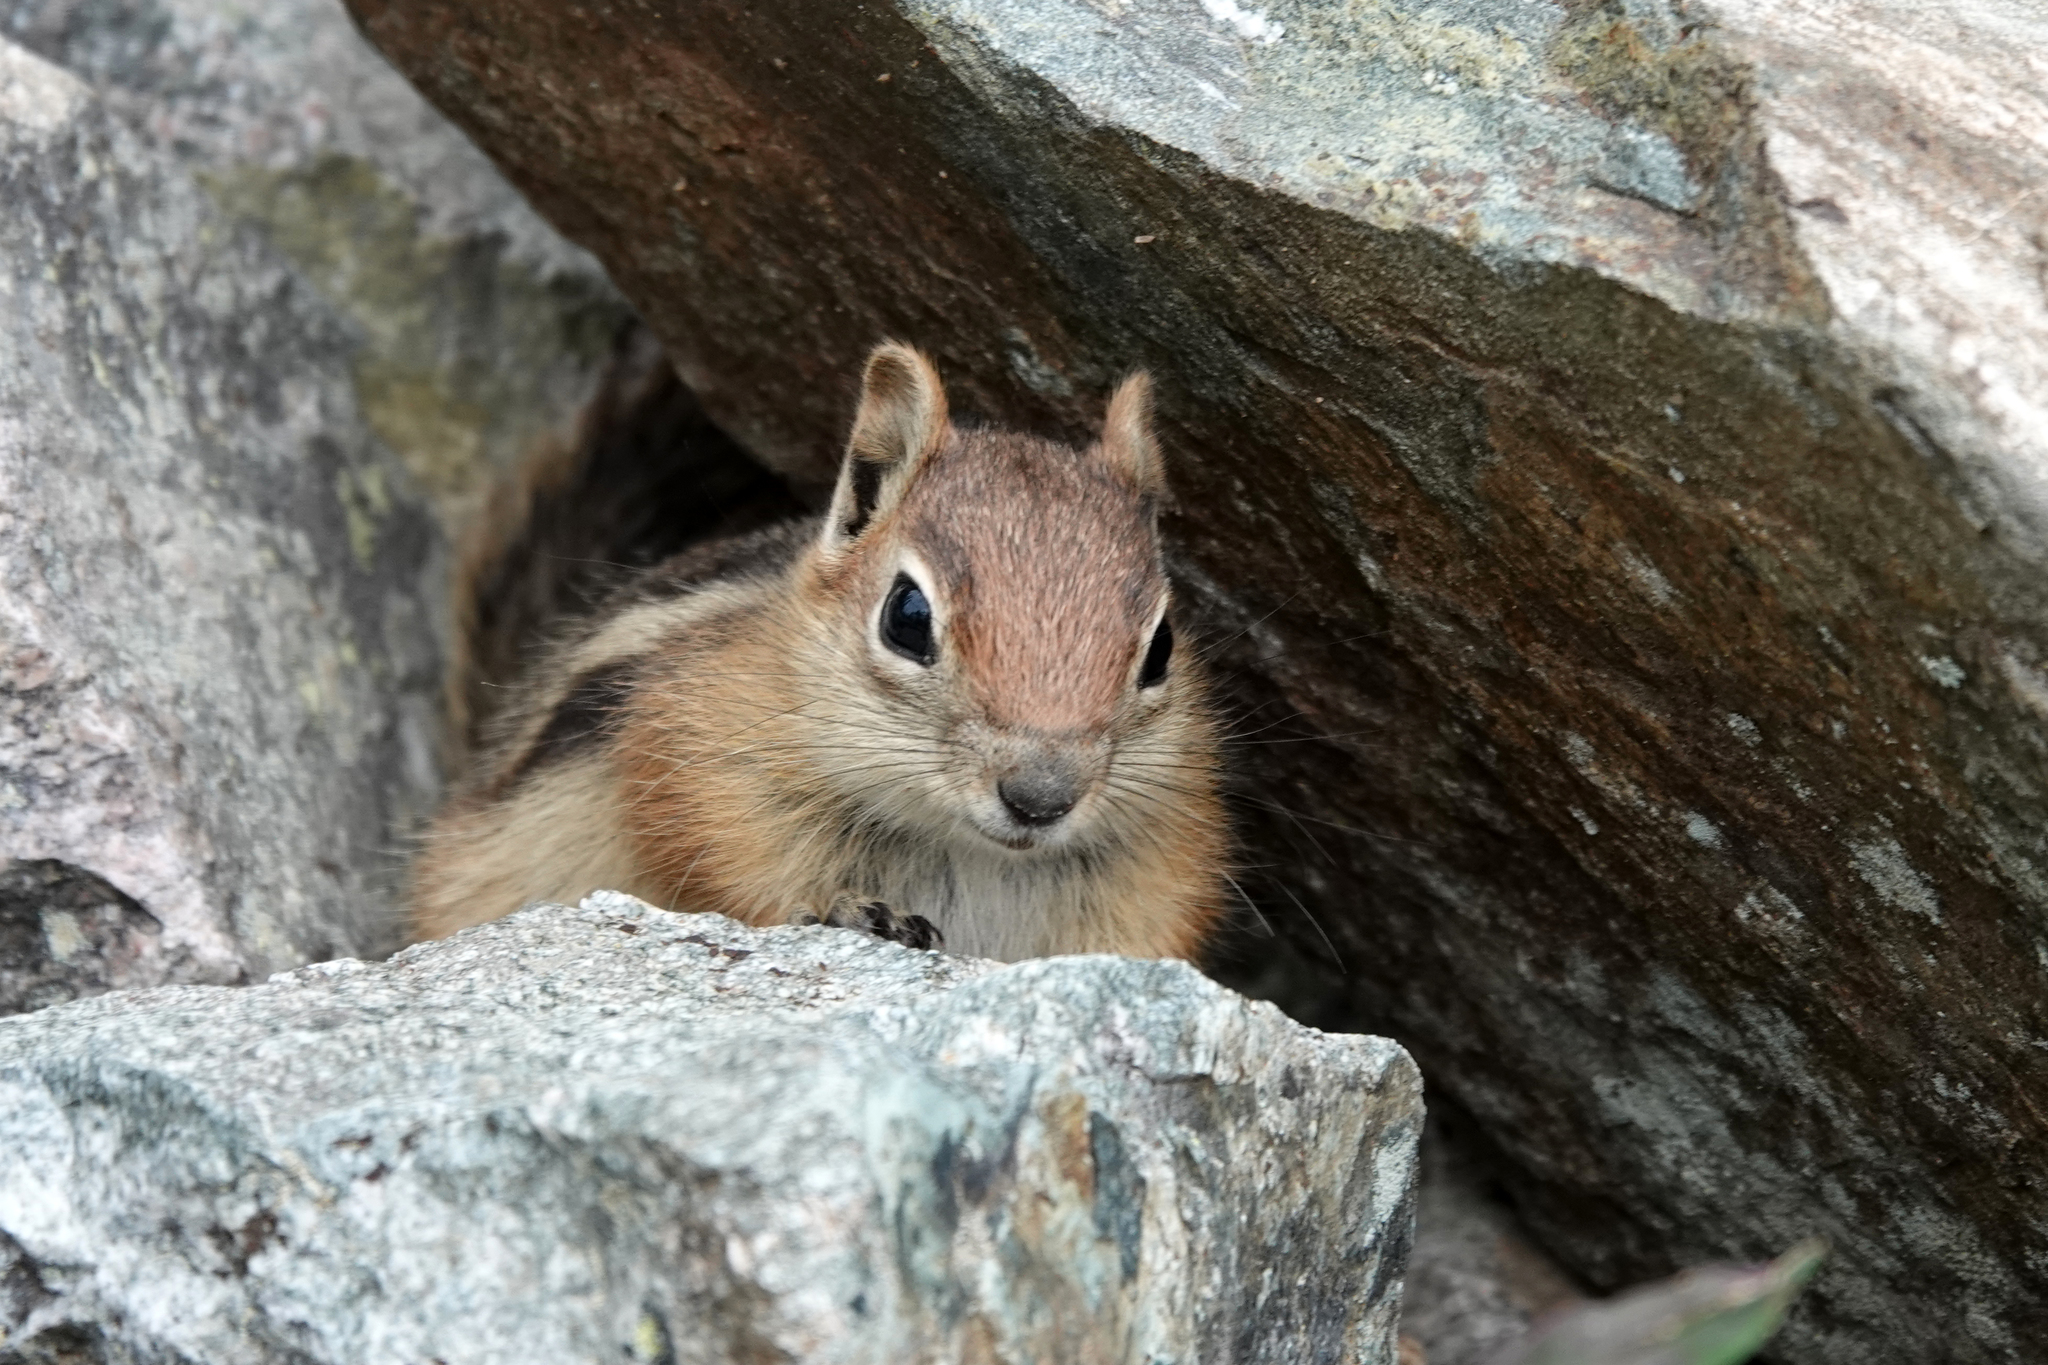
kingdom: Animalia
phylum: Chordata
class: Mammalia
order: Rodentia
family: Sciuridae
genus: Callospermophilus
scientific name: Callospermophilus lateralis
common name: Golden-mantled ground squirrel
